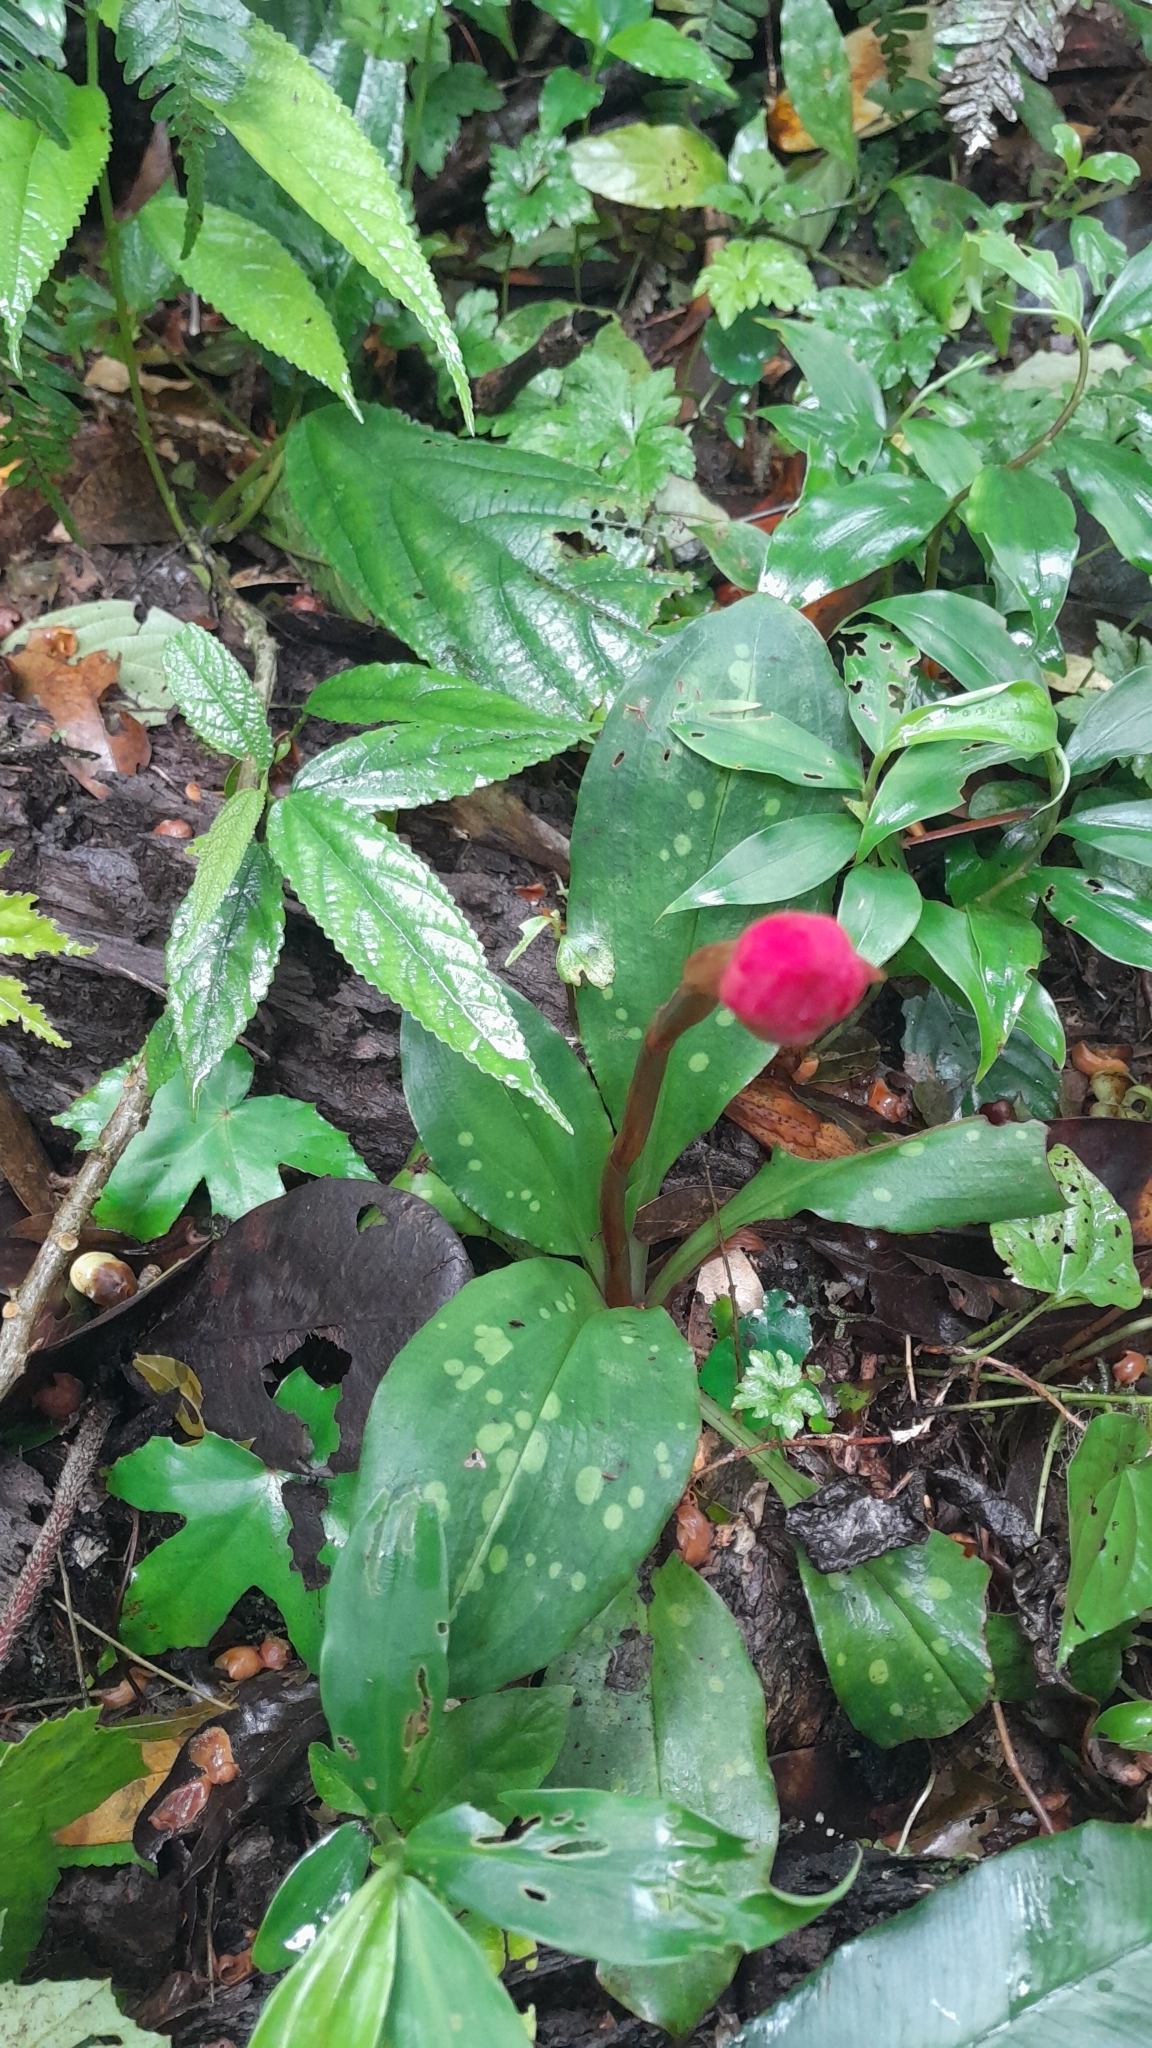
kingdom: Plantae
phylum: Tracheophyta
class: Liliopsida
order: Asparagales
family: Orchidaceae
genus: Stenorrhynchos
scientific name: Stenorrhynchos albidomaculatum
